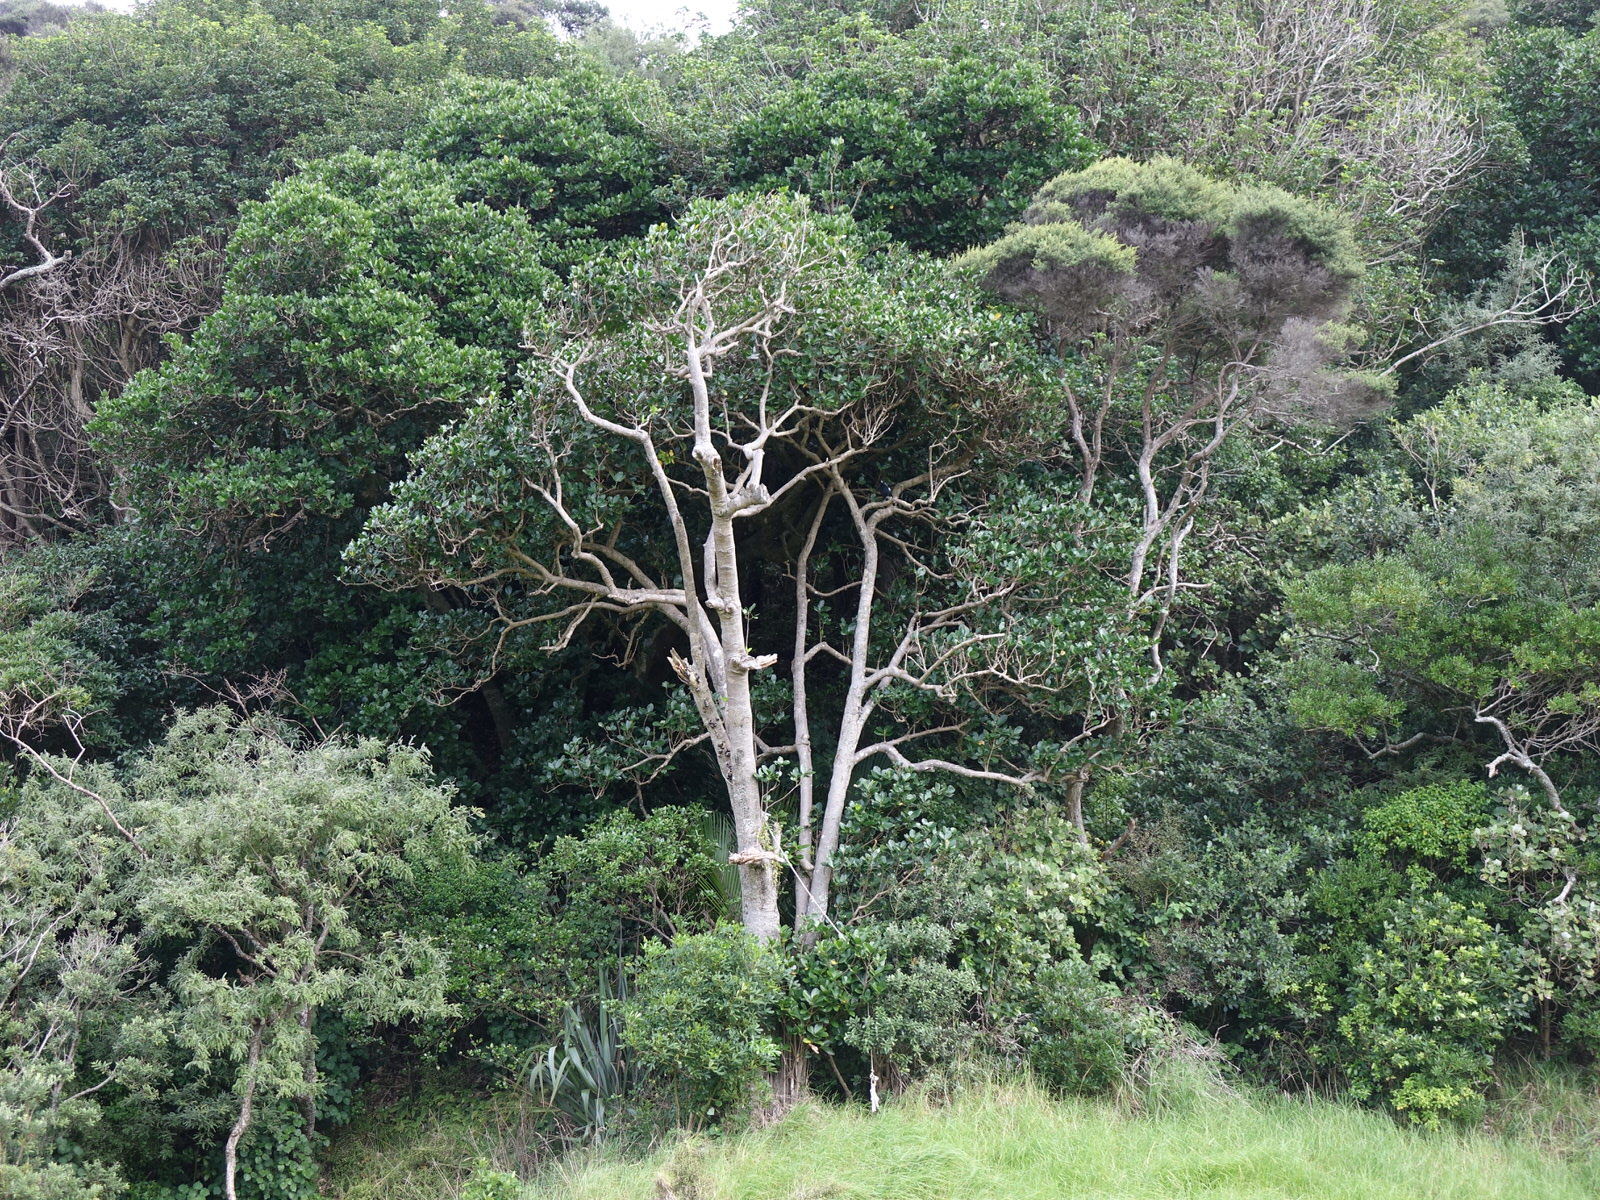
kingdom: Animalia
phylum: Chordata
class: Aves
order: Passeriformes
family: Cracticidae
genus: Gymnorhina
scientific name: Gymnorhina tibicen
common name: Australian magpie
